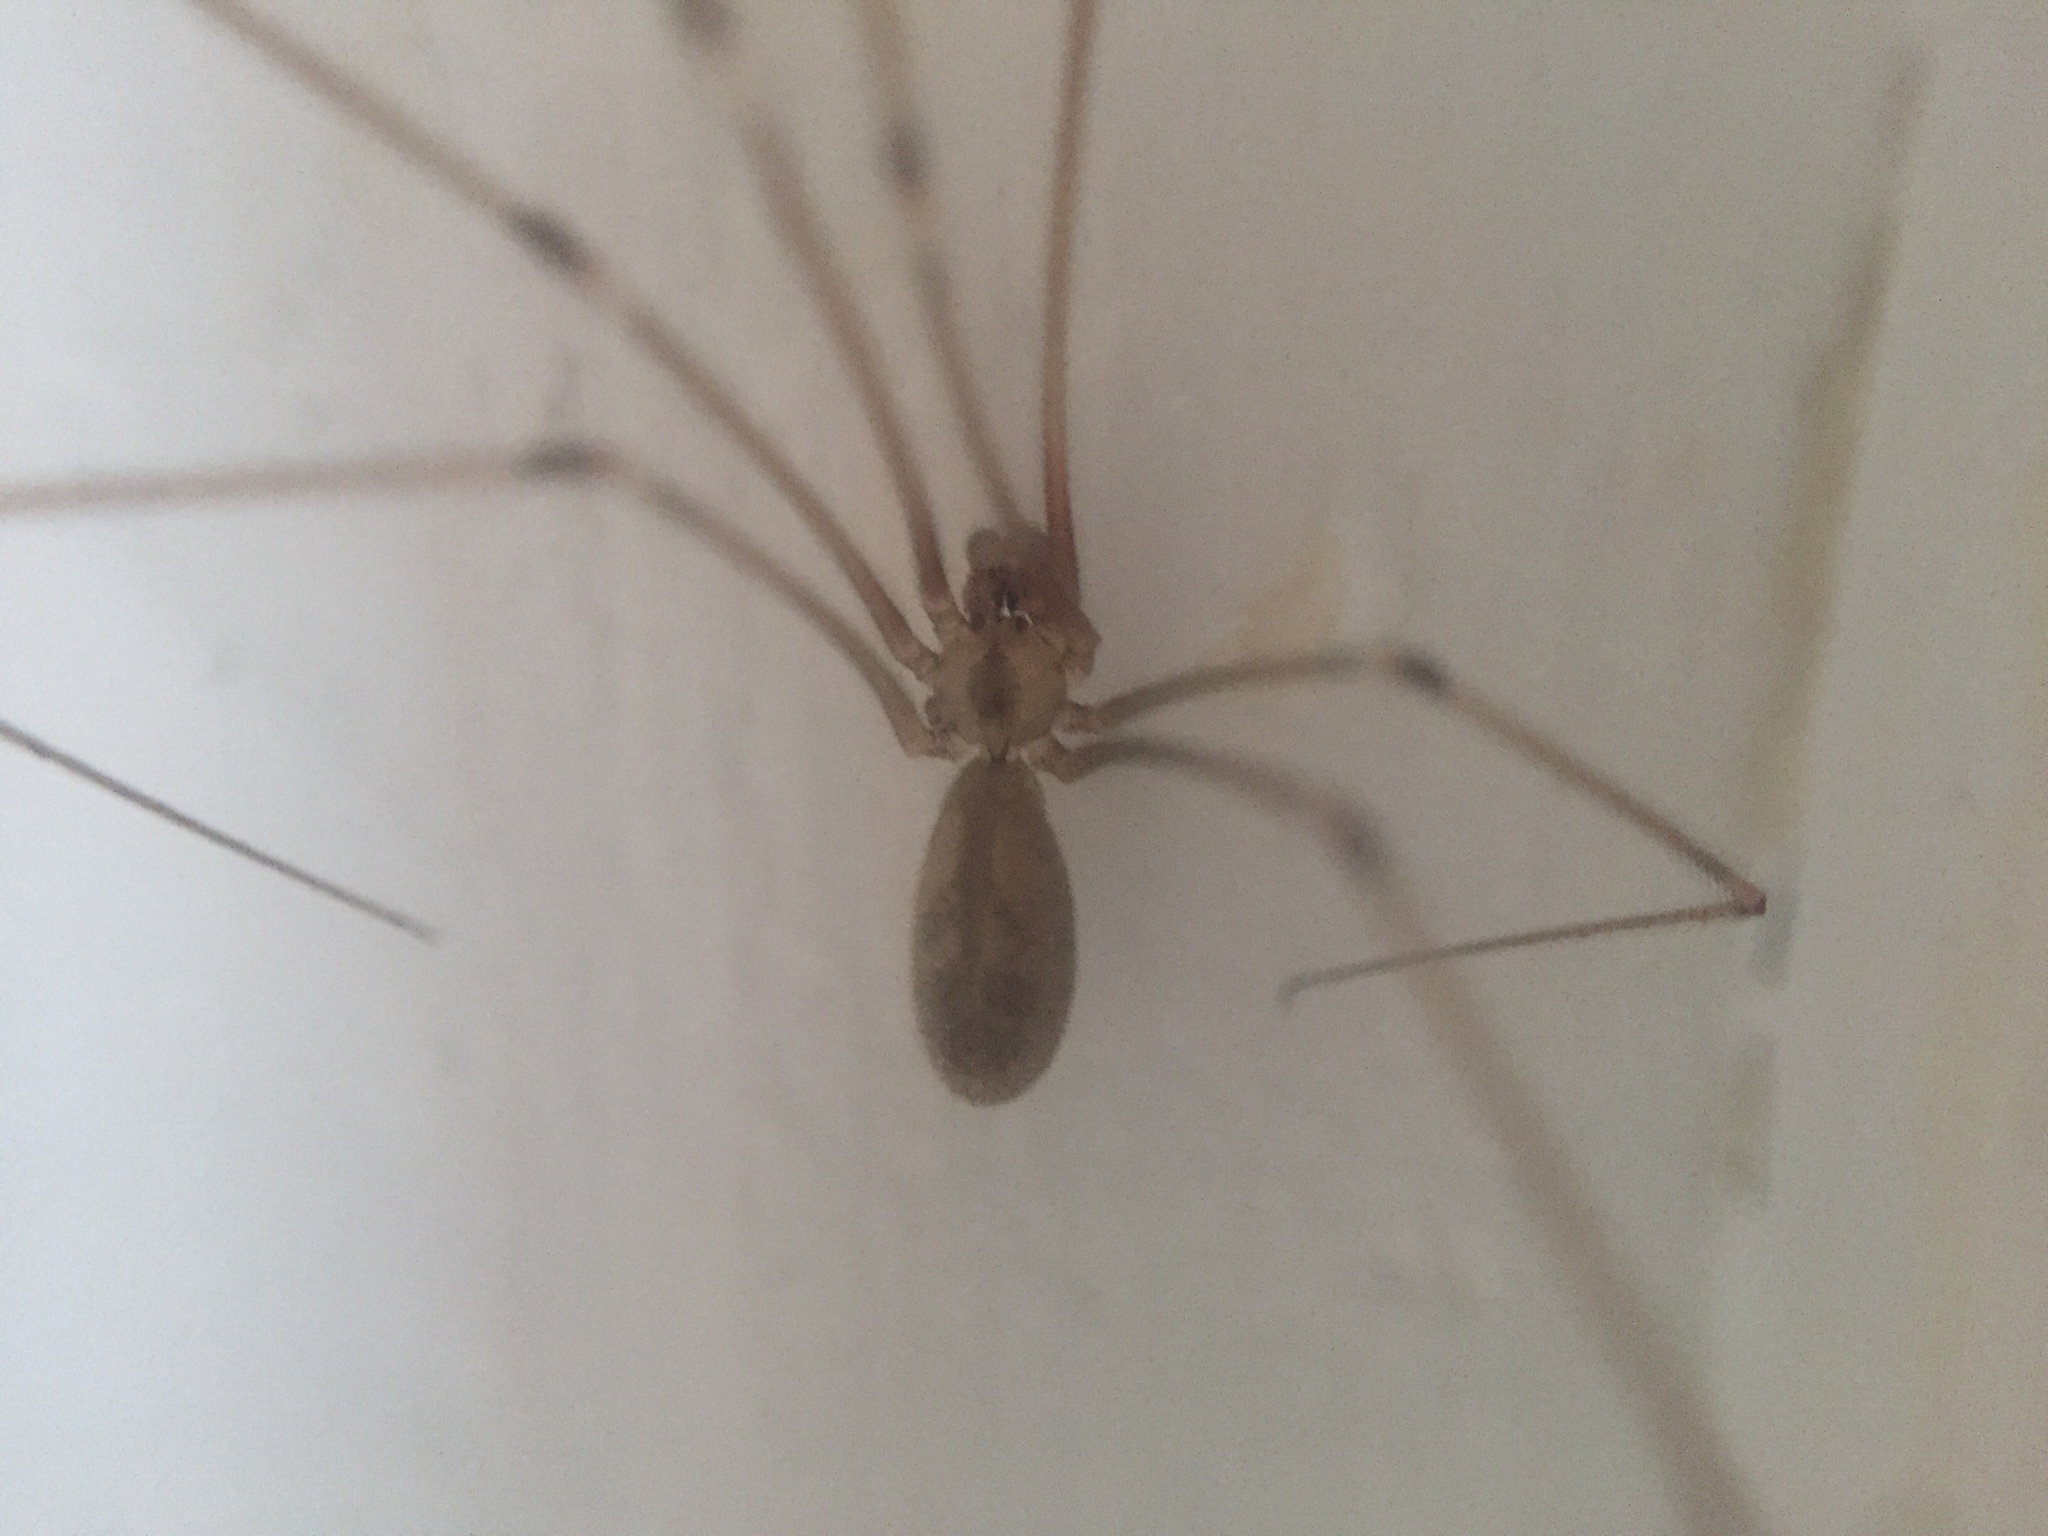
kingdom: Animalia
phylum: Arthropoda
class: Arachnida
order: Araneae
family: Pholcidae
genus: Pholcus
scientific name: Pholcus phalangioides
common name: Longbodied cellar spider
